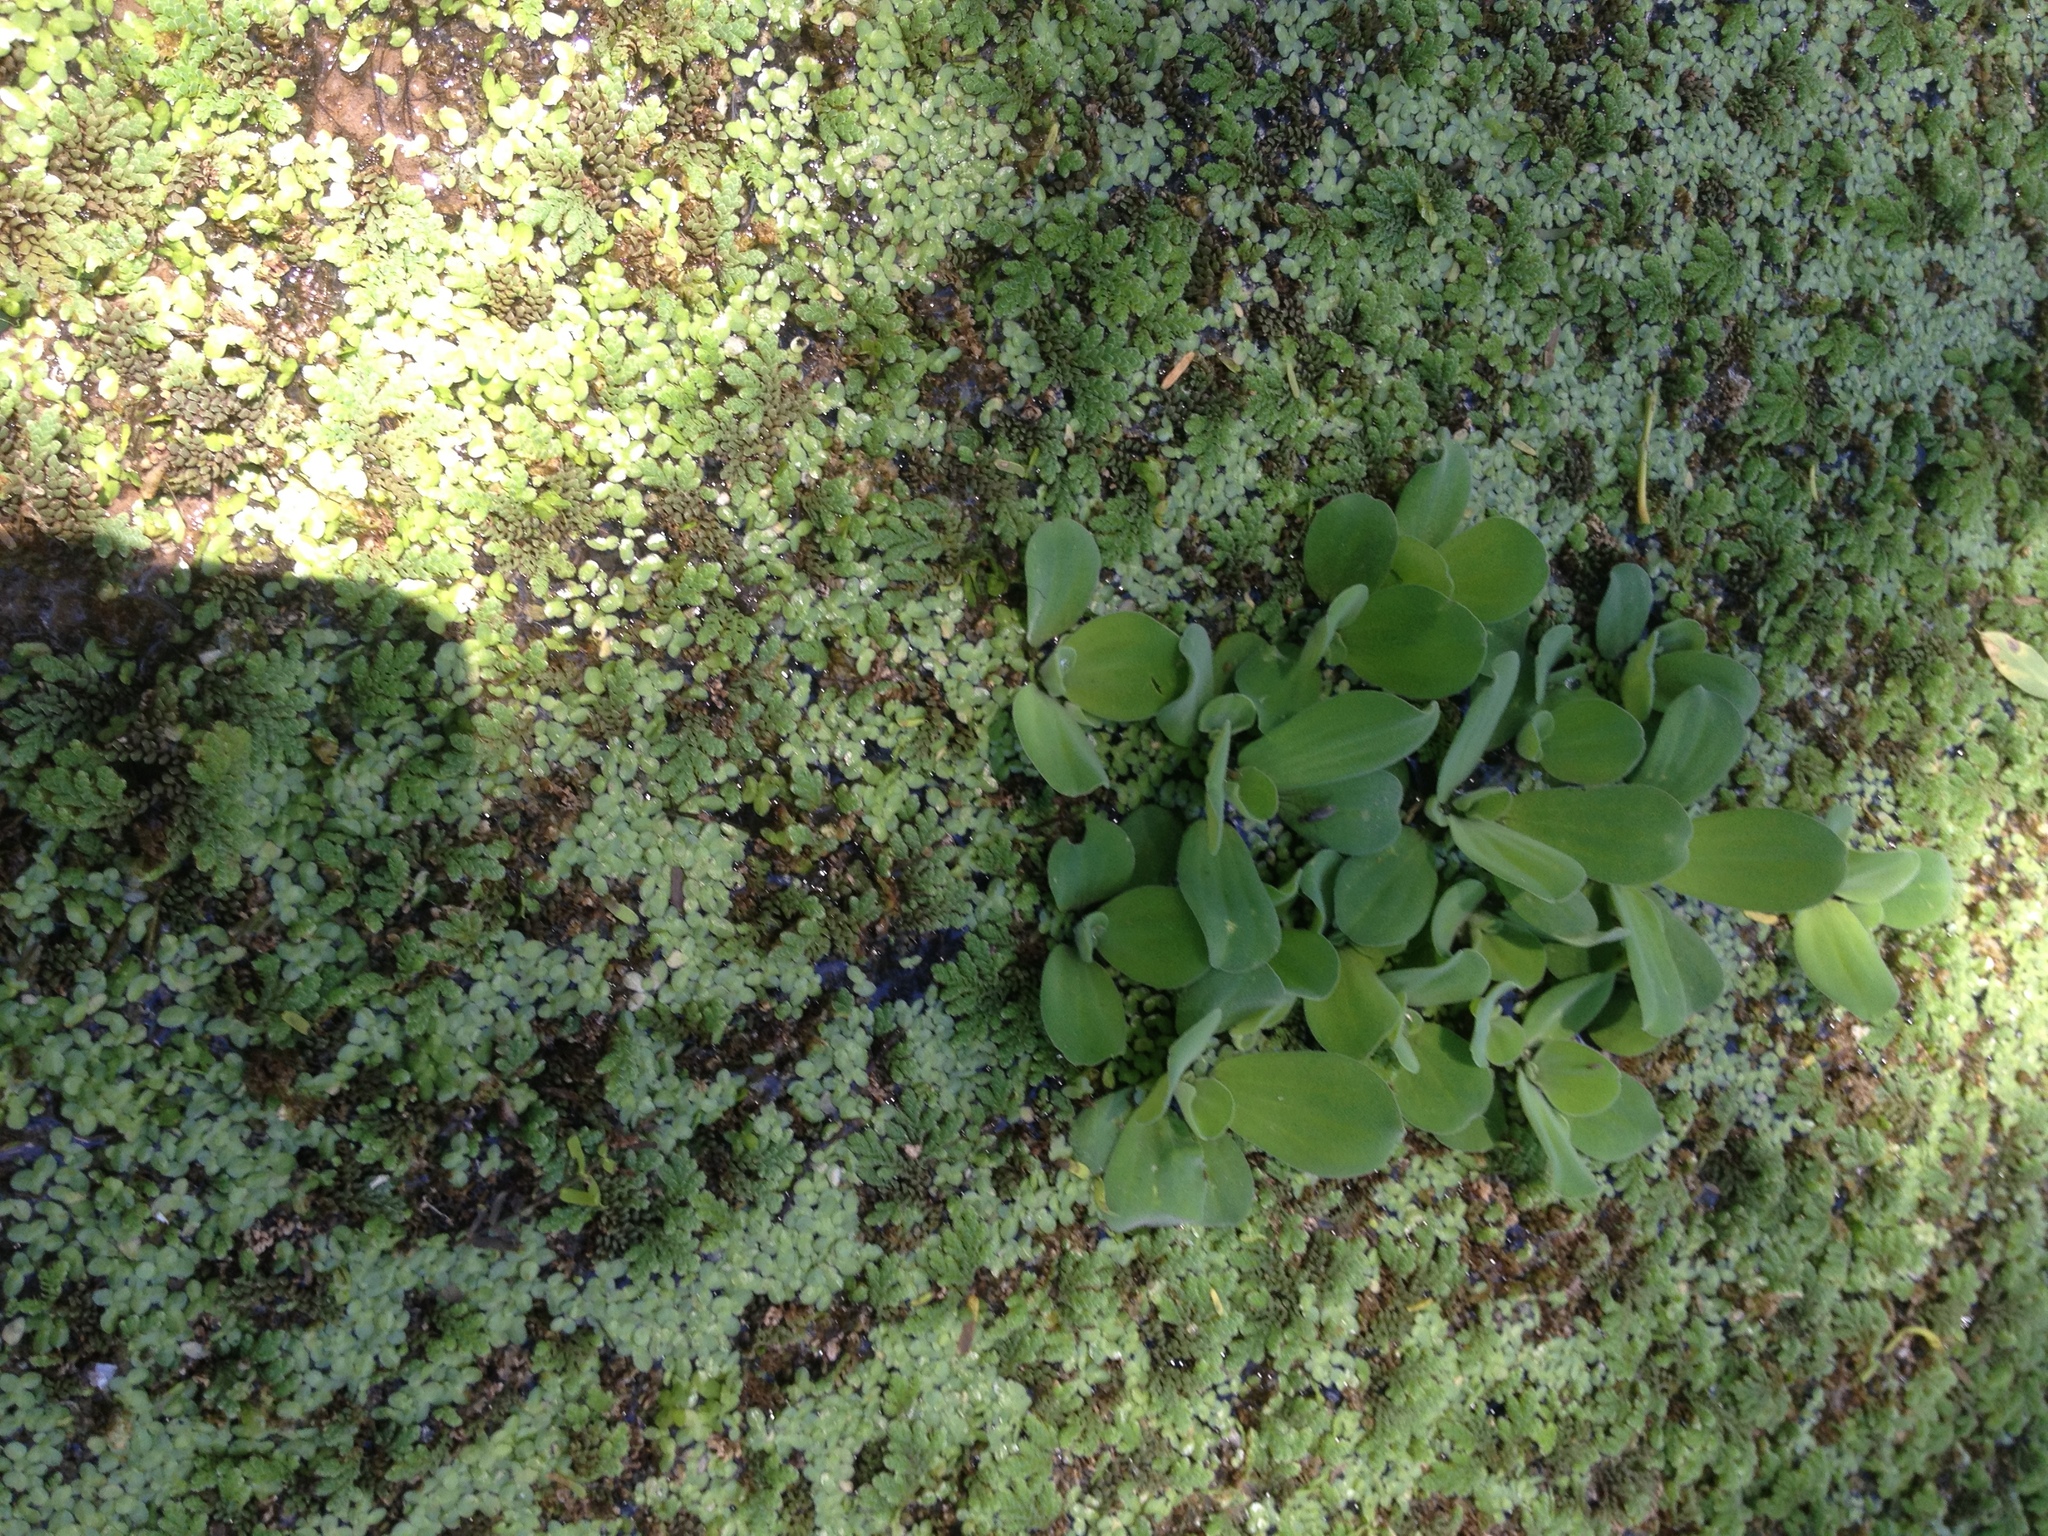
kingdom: Plantae
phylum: Tracheophyta
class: Liliopsida
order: Alismatales
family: Araceae
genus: Pistia
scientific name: Pistia stratiotes
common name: Water lettuce
